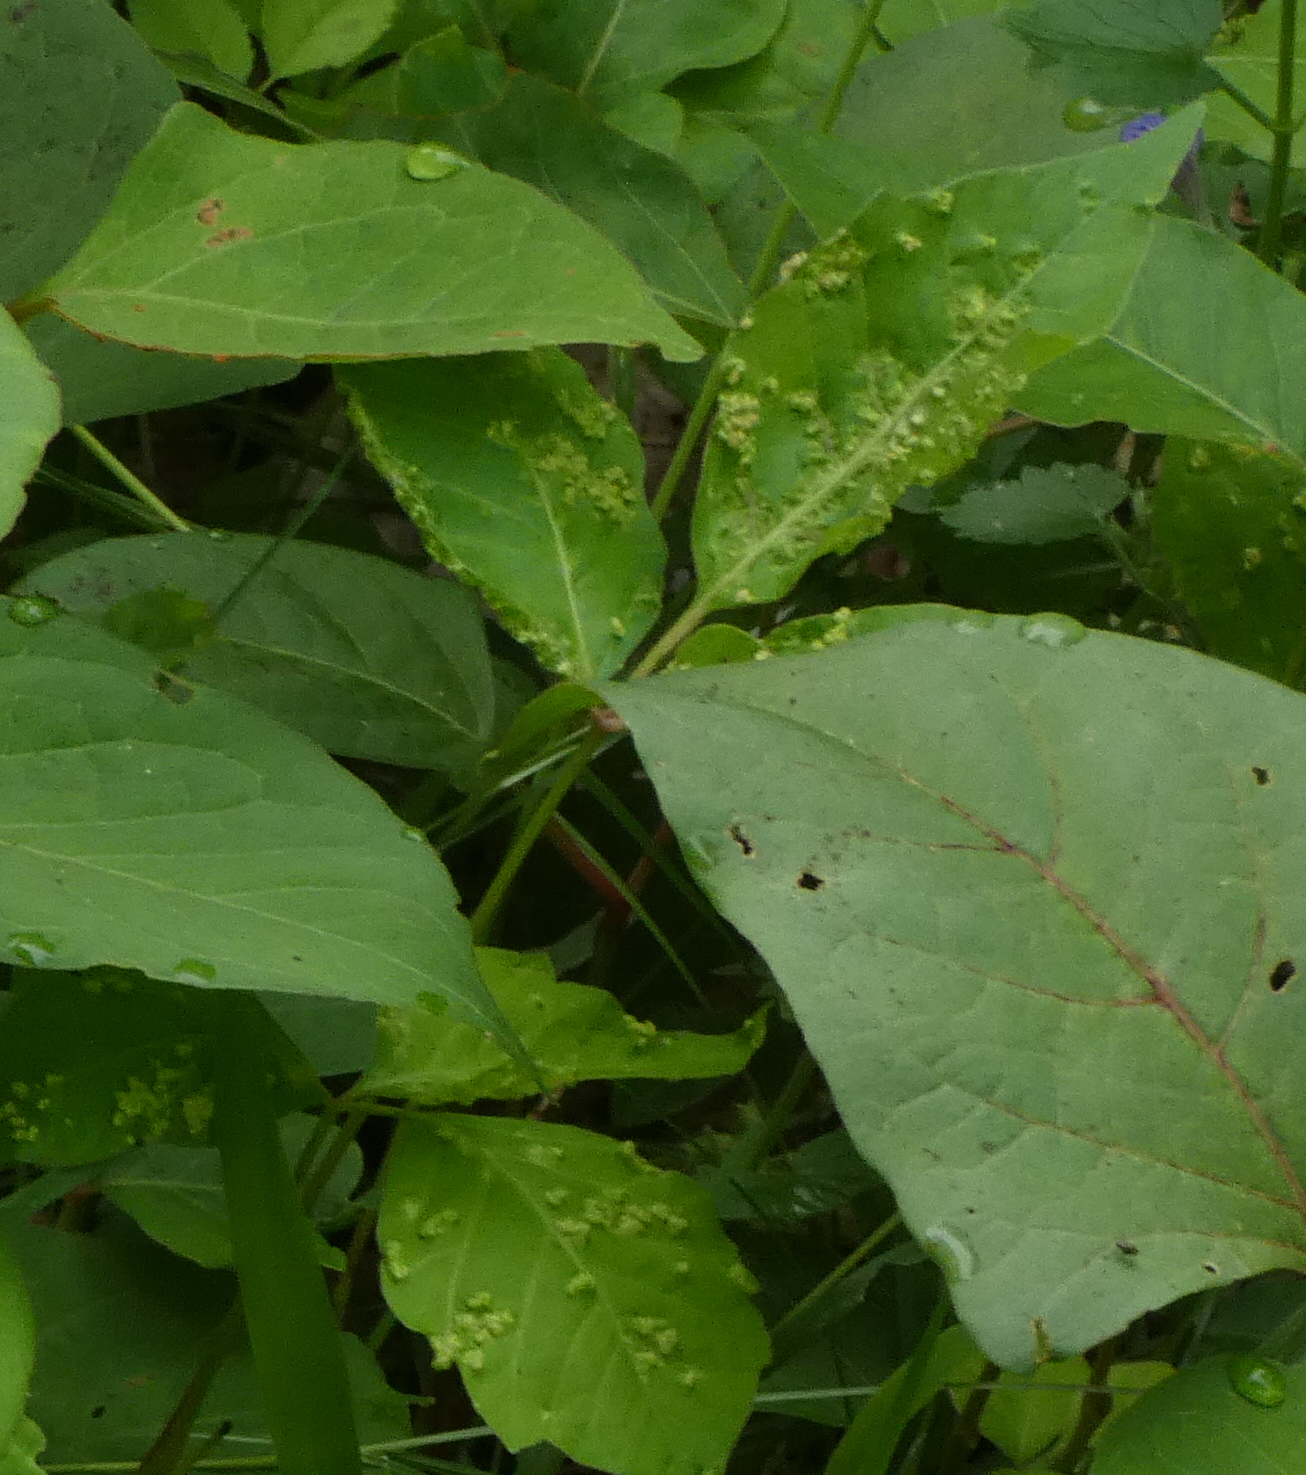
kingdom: Animalia
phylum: Arthropoda
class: Arachnida
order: Trombidiformes
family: Eriophyidae
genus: Aculops
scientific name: Aculops
